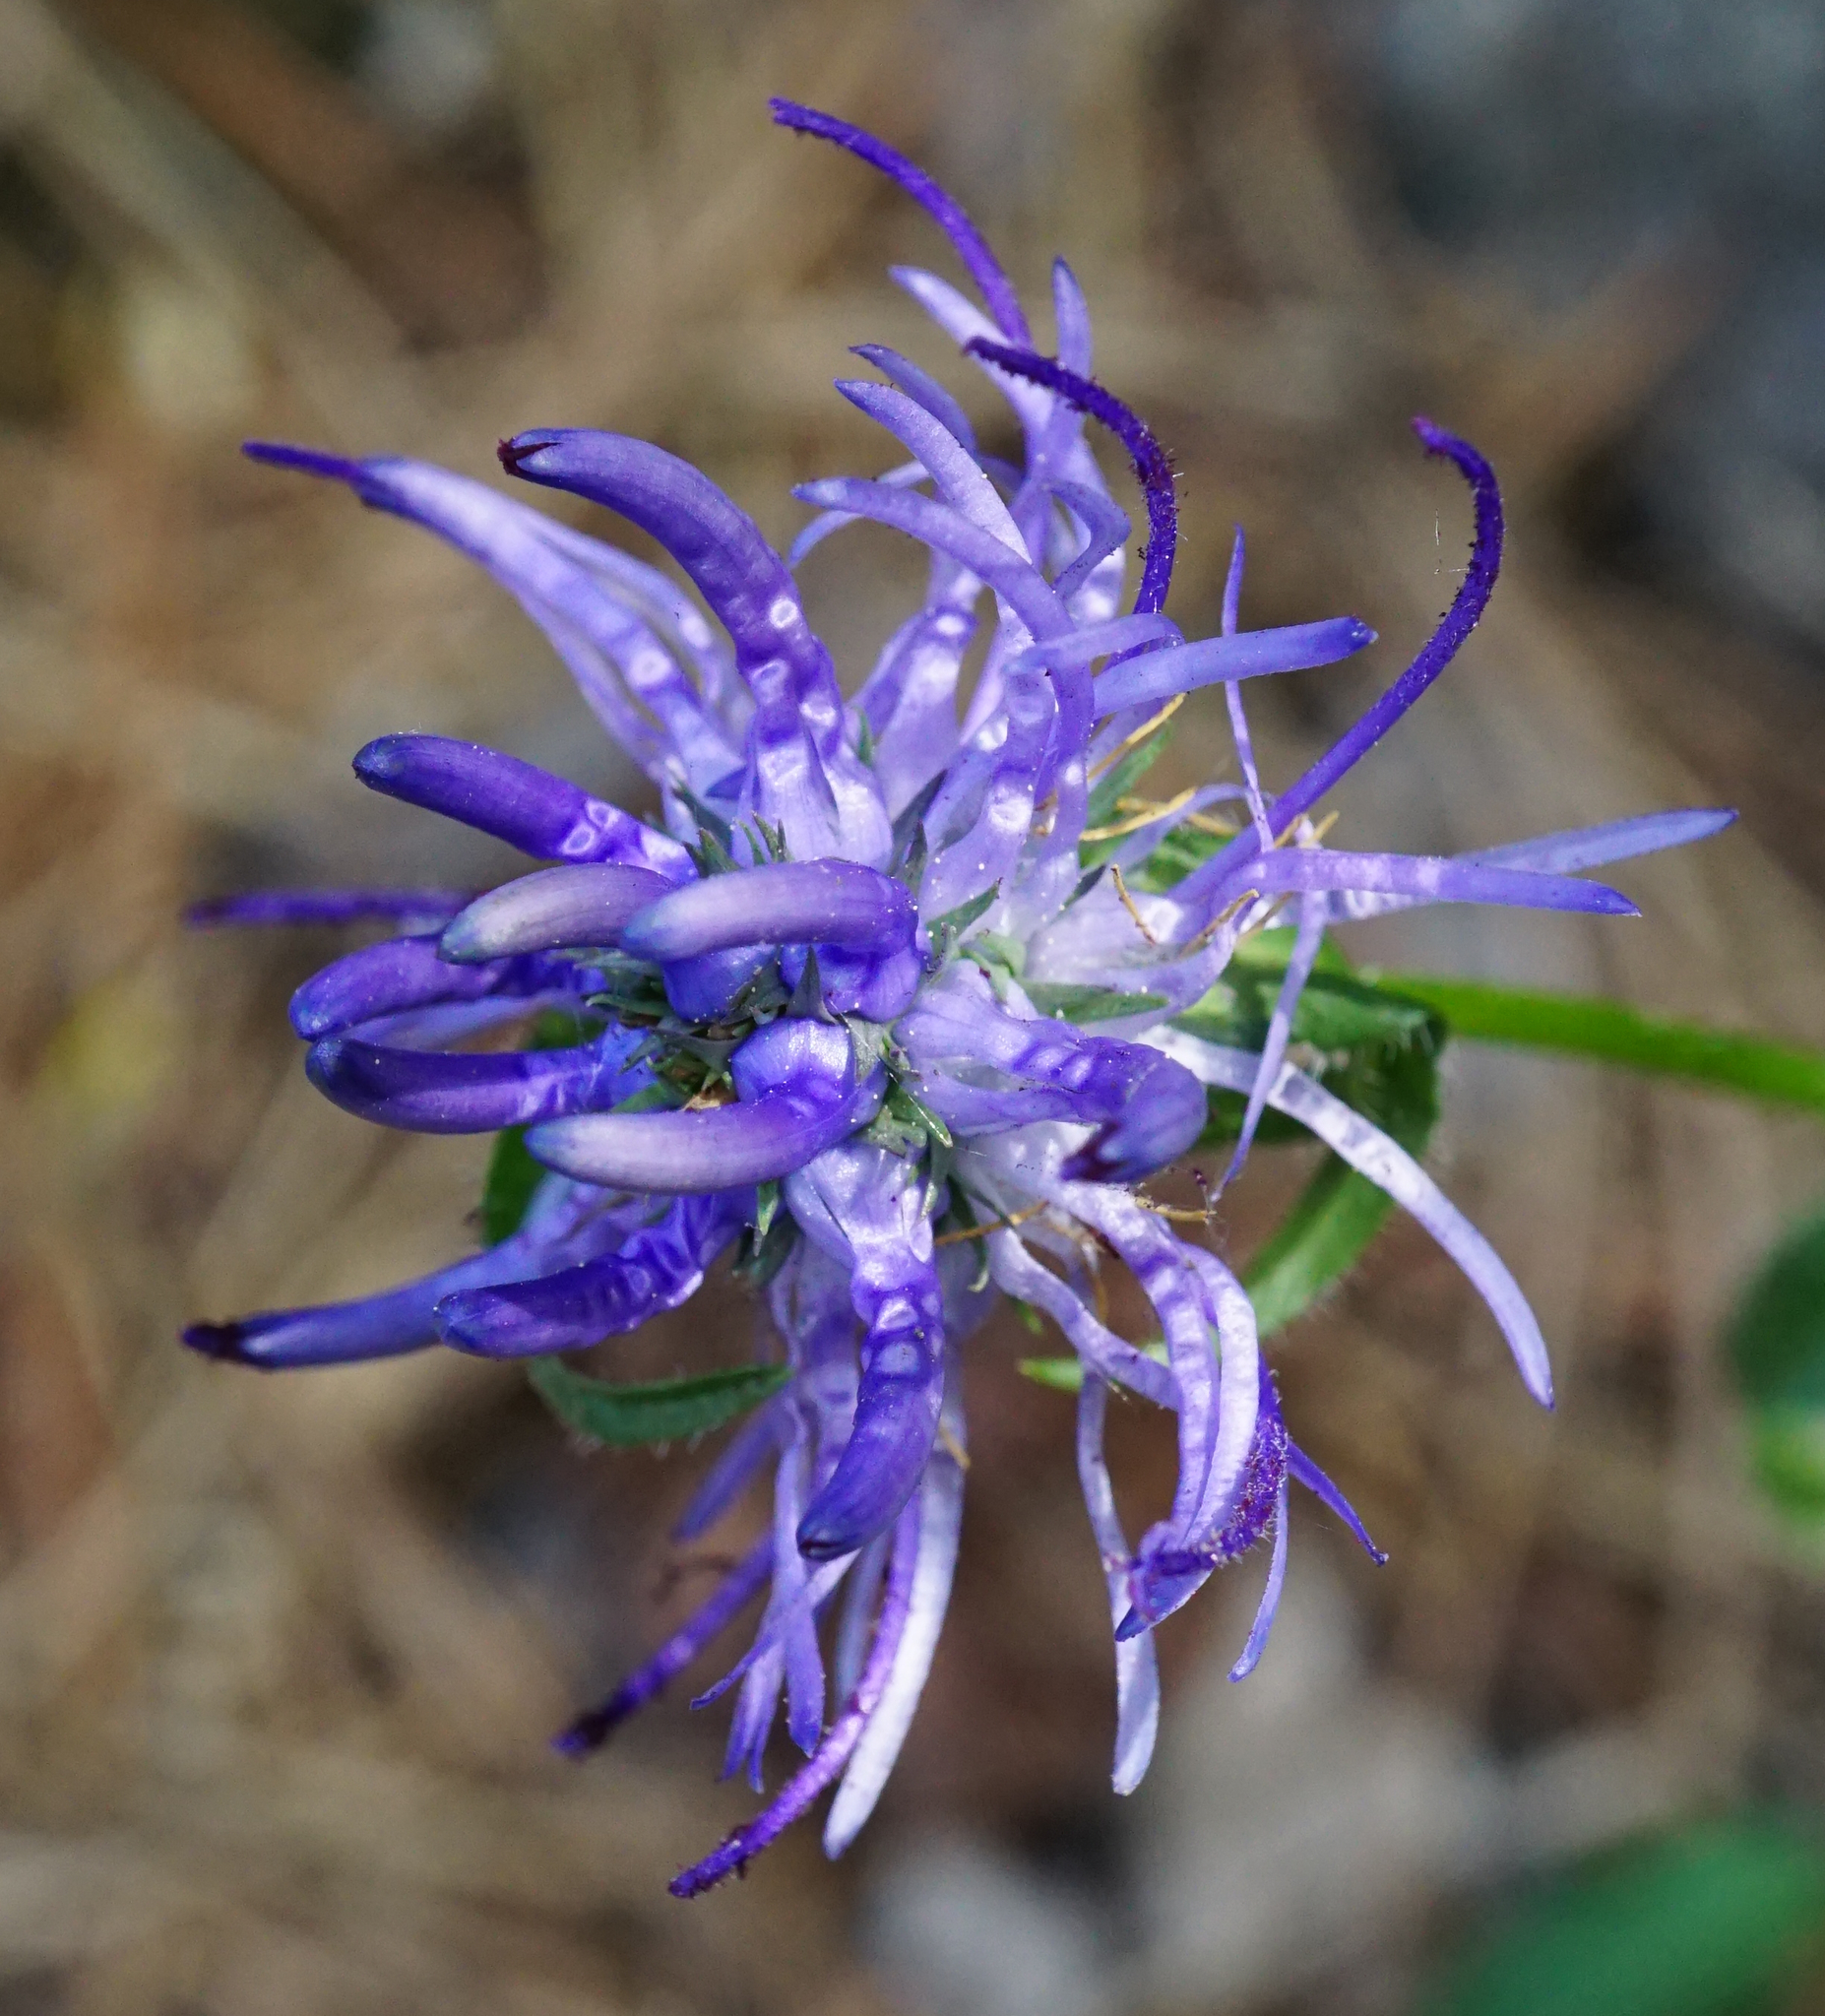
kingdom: Plantae
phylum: Tracheophyta
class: Magnoliopsida
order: Asterales
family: Campanulaceae
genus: Phyteuma
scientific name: Phyteuma orbiculare
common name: Round-headed rampion
